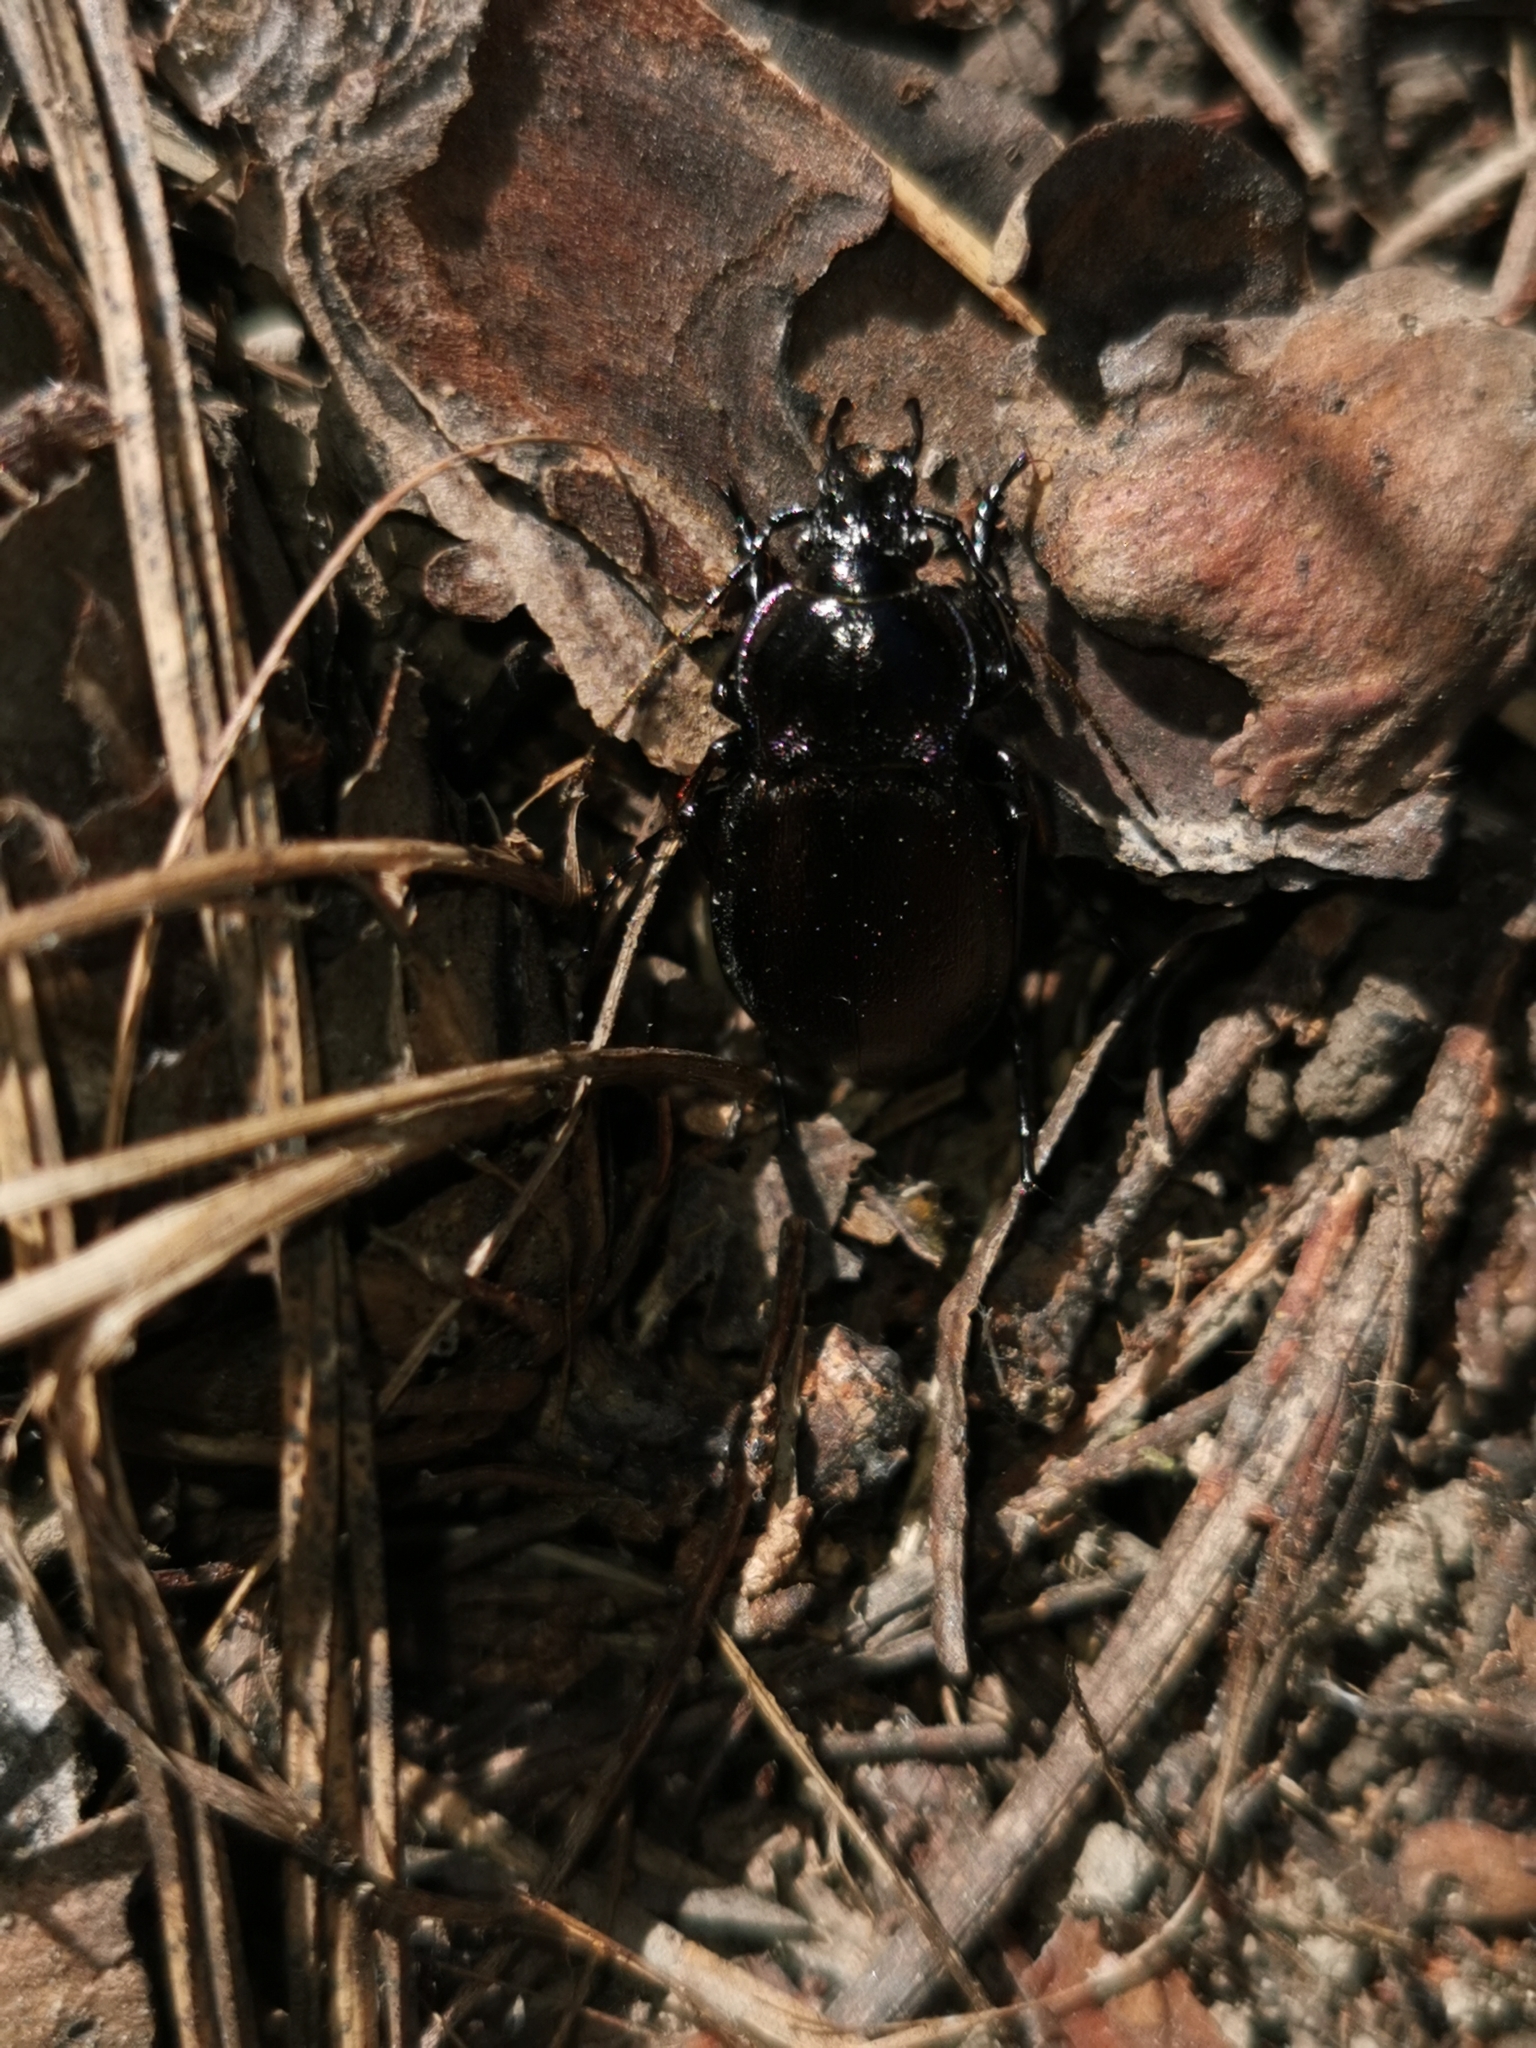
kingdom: Animalia
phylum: Arthropoda
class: Insecta
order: Coleoptera
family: Carabidae
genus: Carabus
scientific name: Carabus nemoralis
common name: European ground beetle
